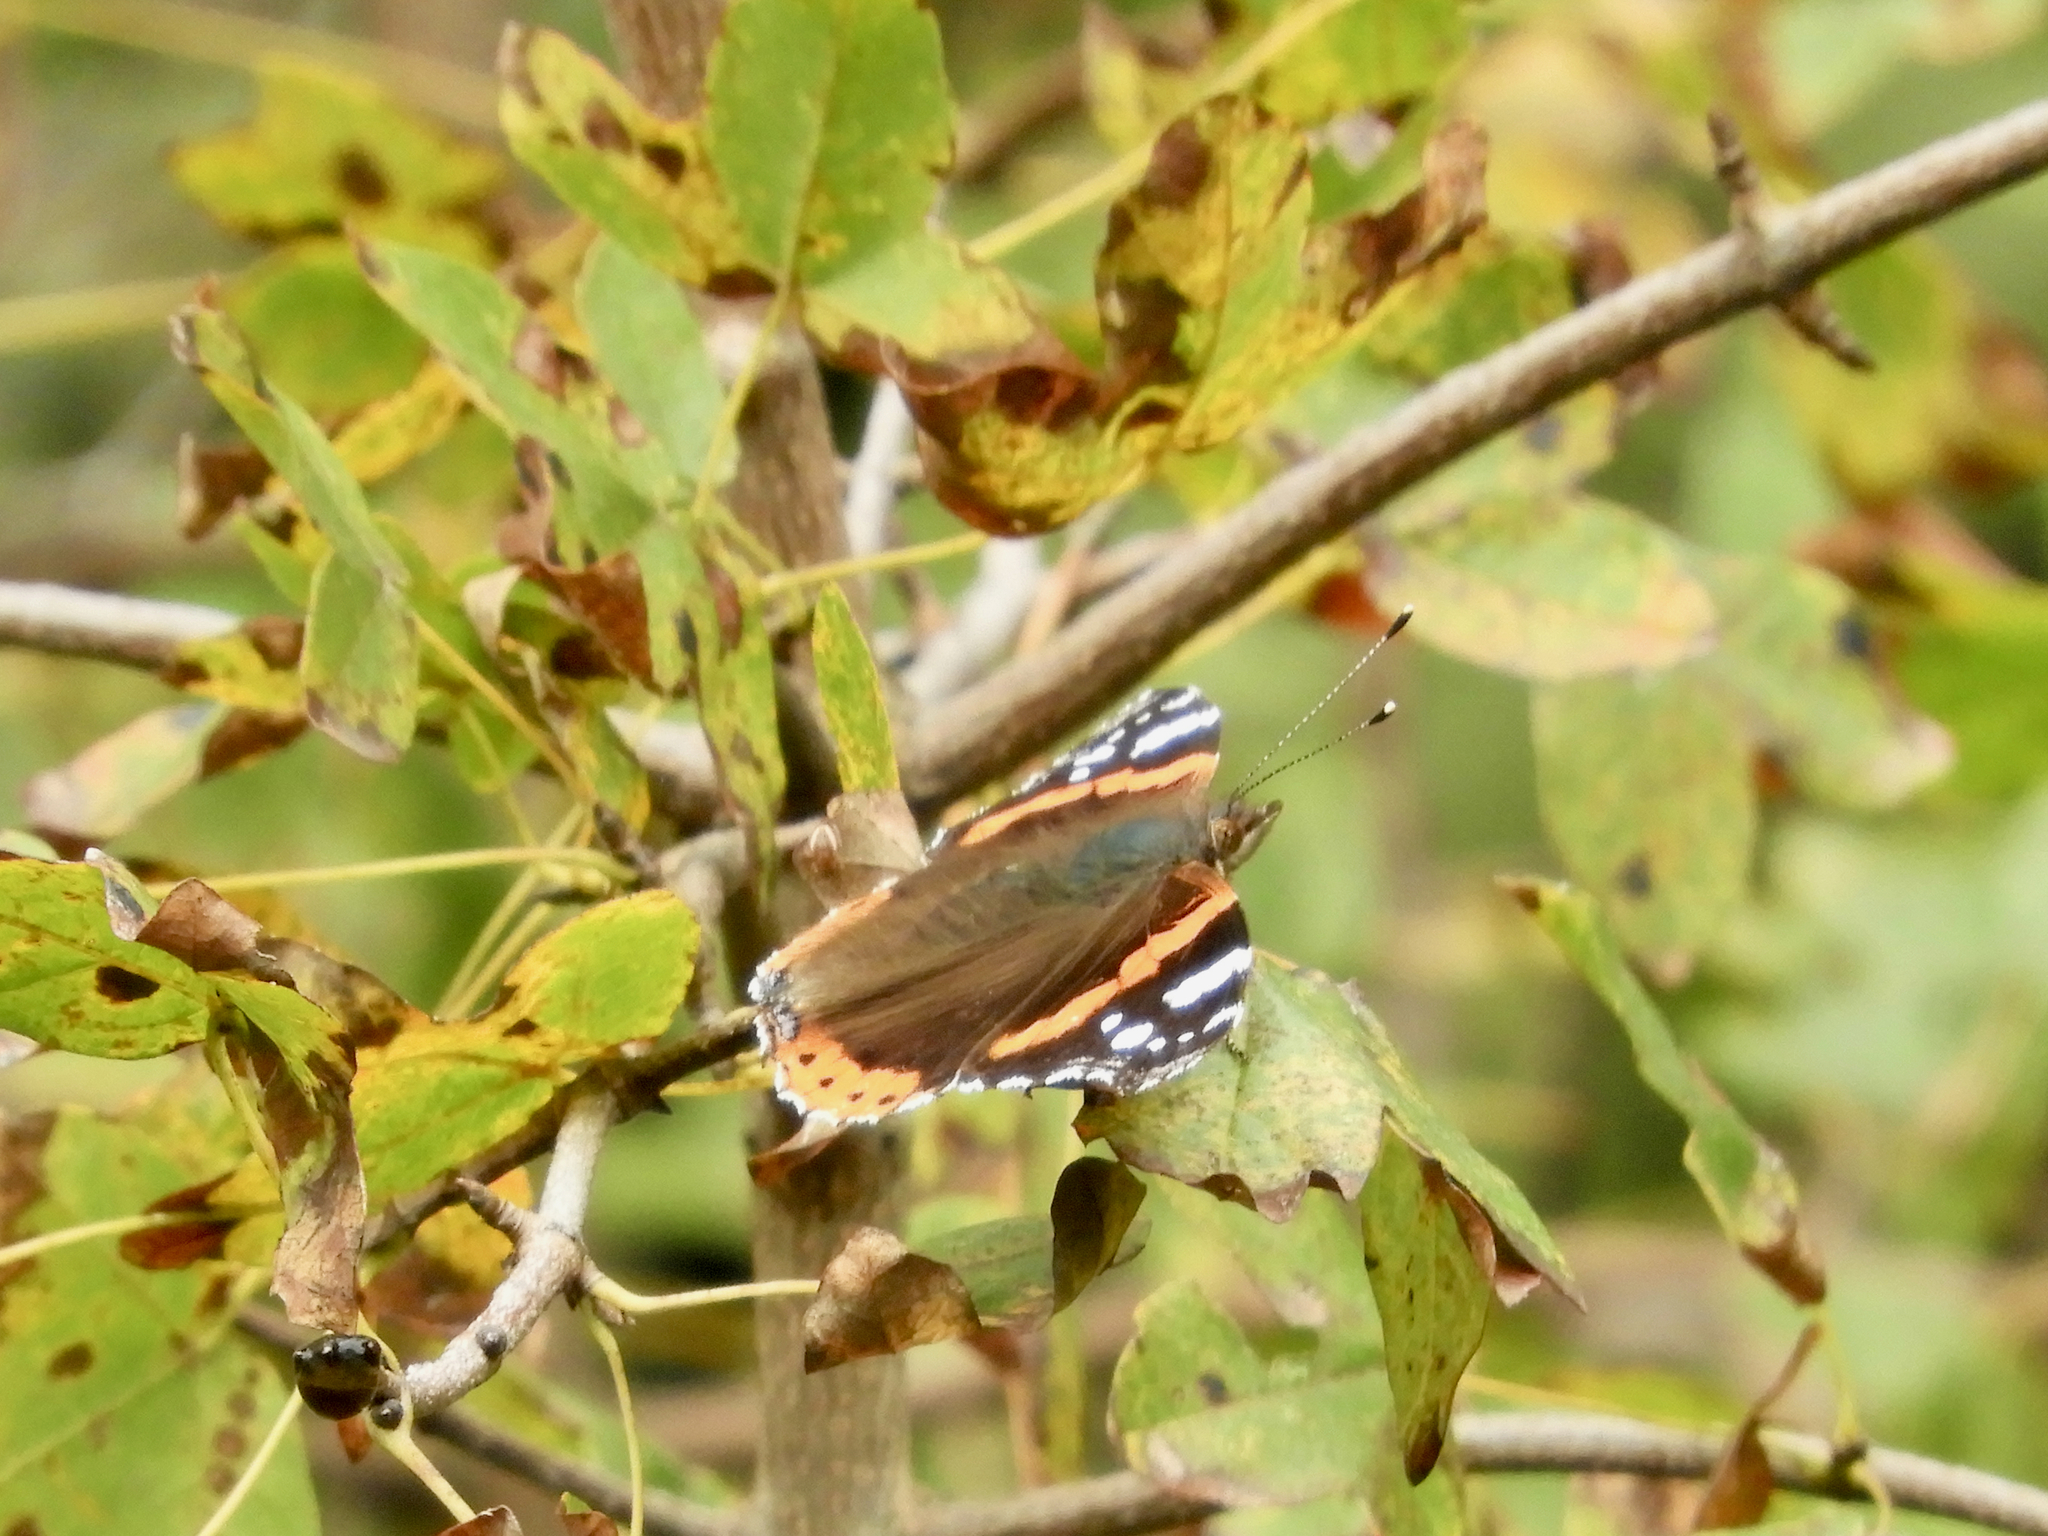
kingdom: Animalia
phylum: Arthropoda
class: Insecta
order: Lepidoptera
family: Nymphalidae
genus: Vanessa
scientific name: Vanessa atalanta
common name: Red admiral
